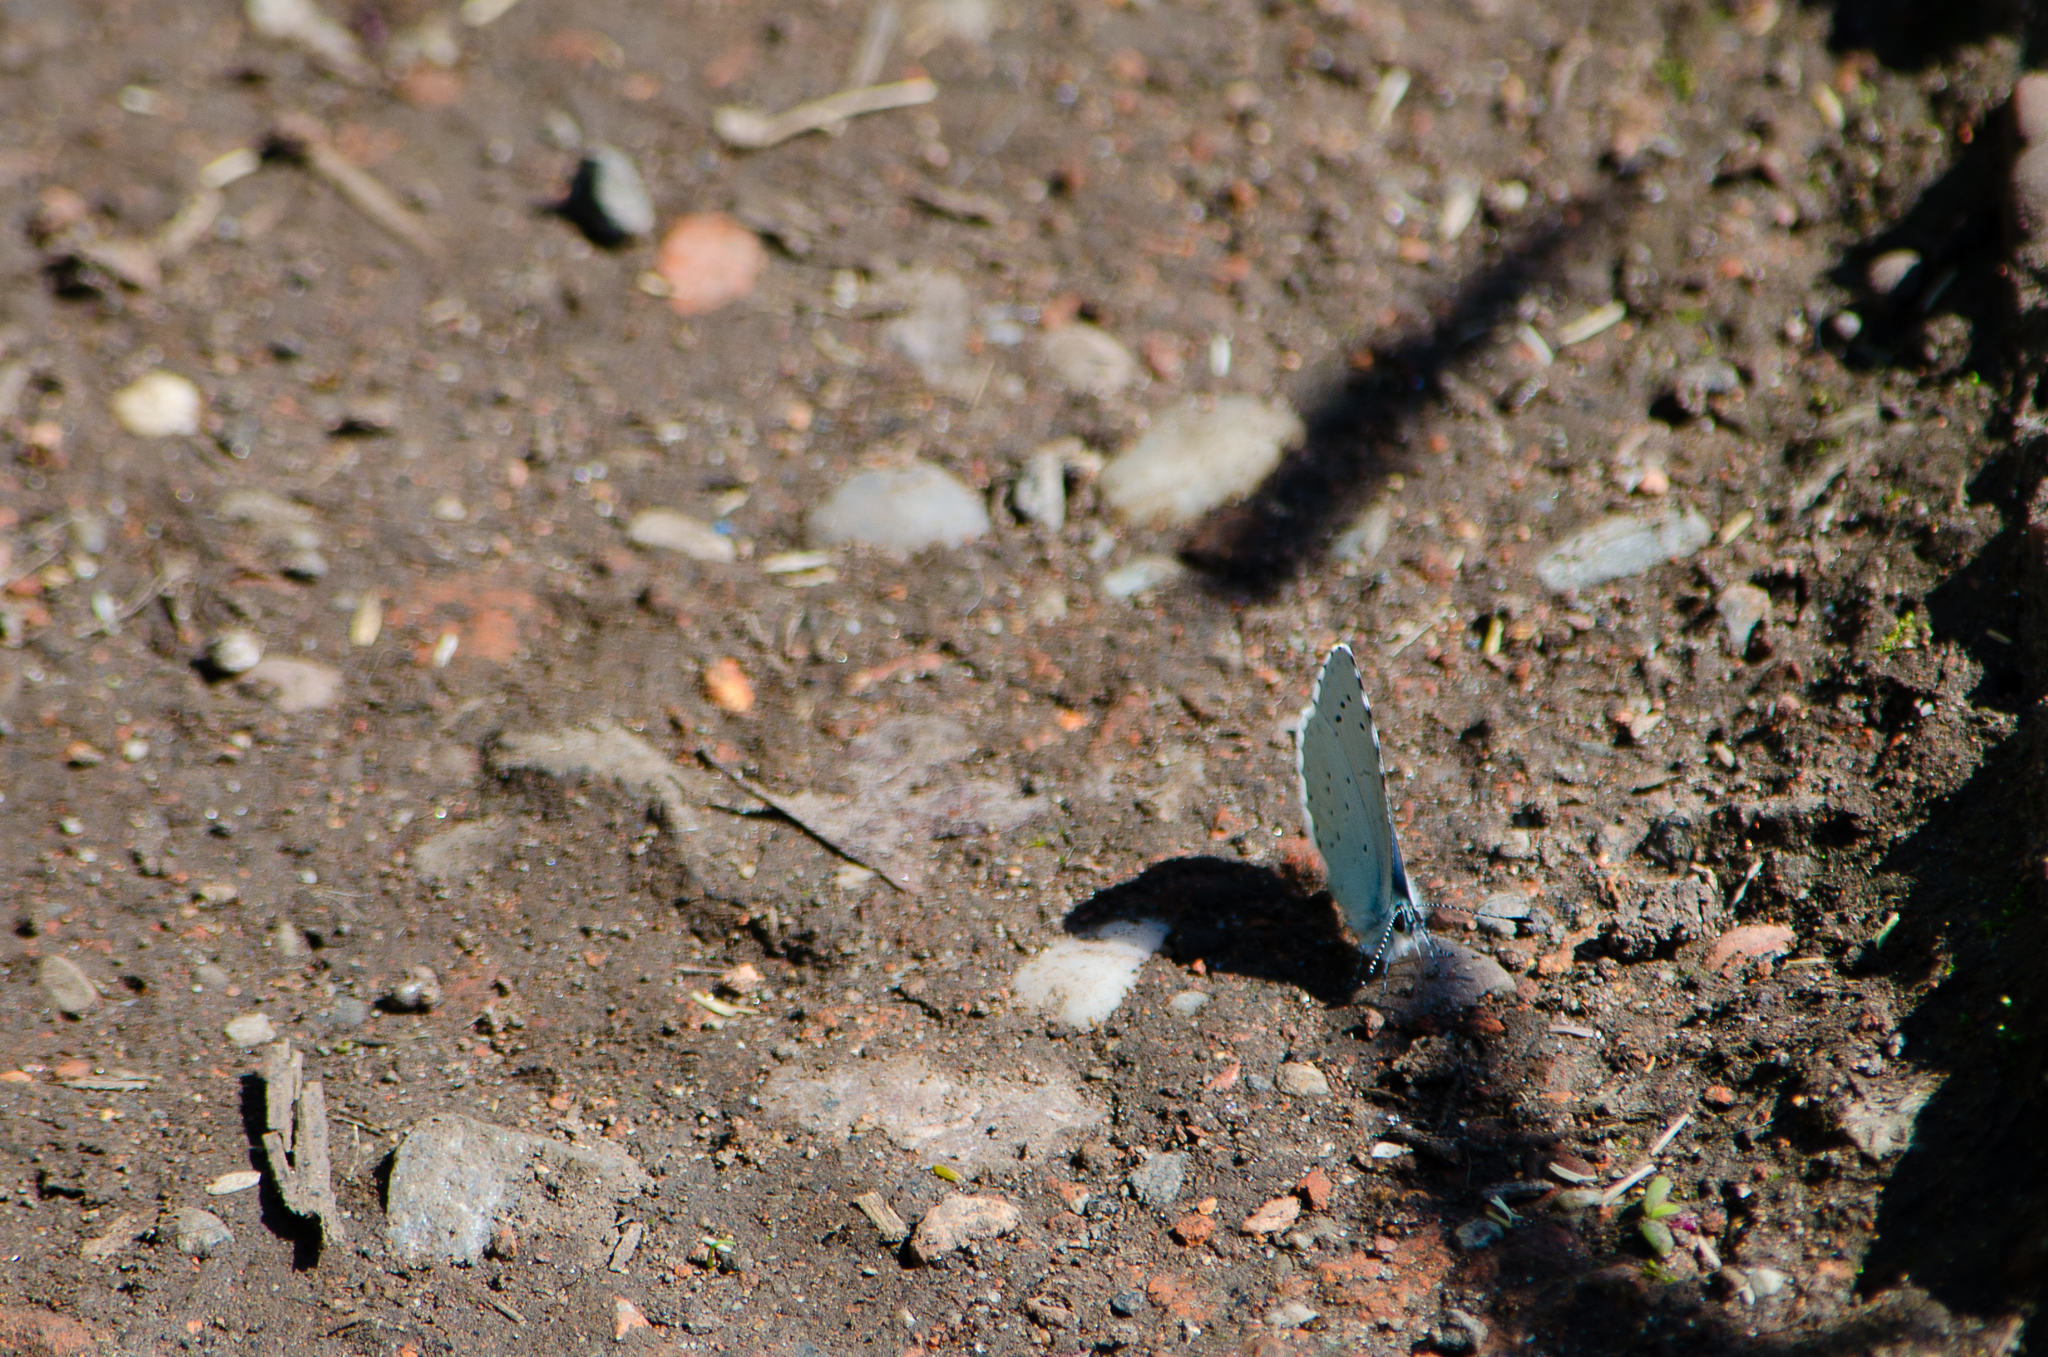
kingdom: Animalia
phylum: Arthropoda
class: Insecta
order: Lepidoptera
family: Lycaenidae
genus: Celastrina
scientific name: Celastrina argiolus
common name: Holly blue
